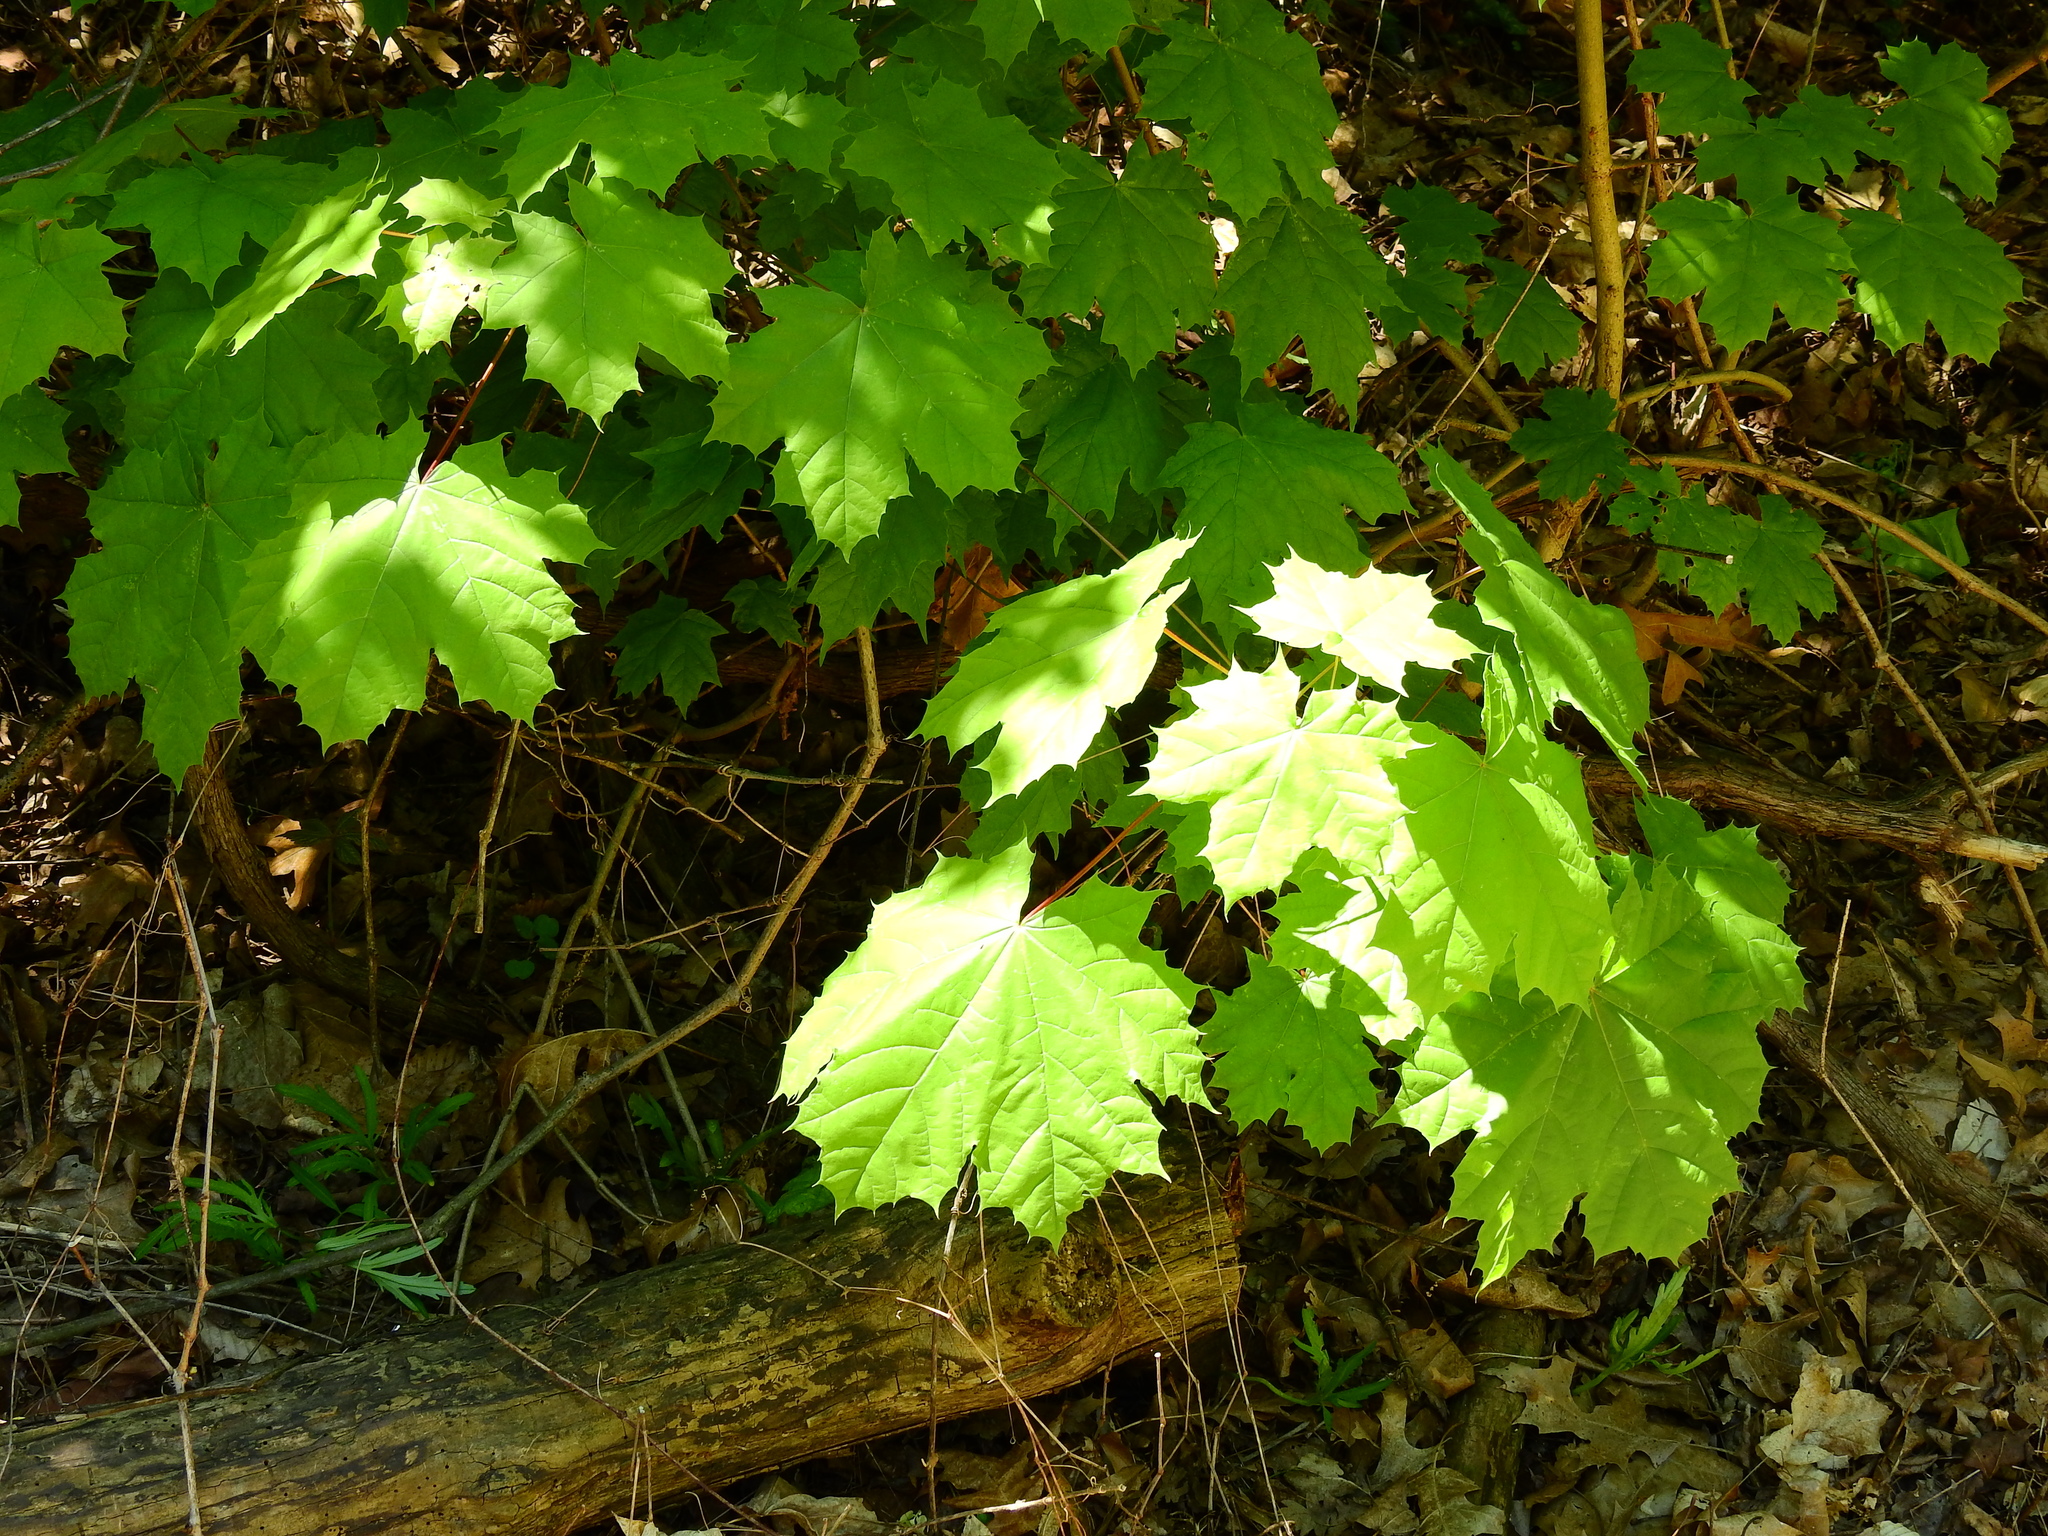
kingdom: Plantae
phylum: Tracheophyta
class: Magnoliopsida
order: Sapindales
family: Sapindaceae
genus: Acer
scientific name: Acer platanoides
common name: Norway maple
